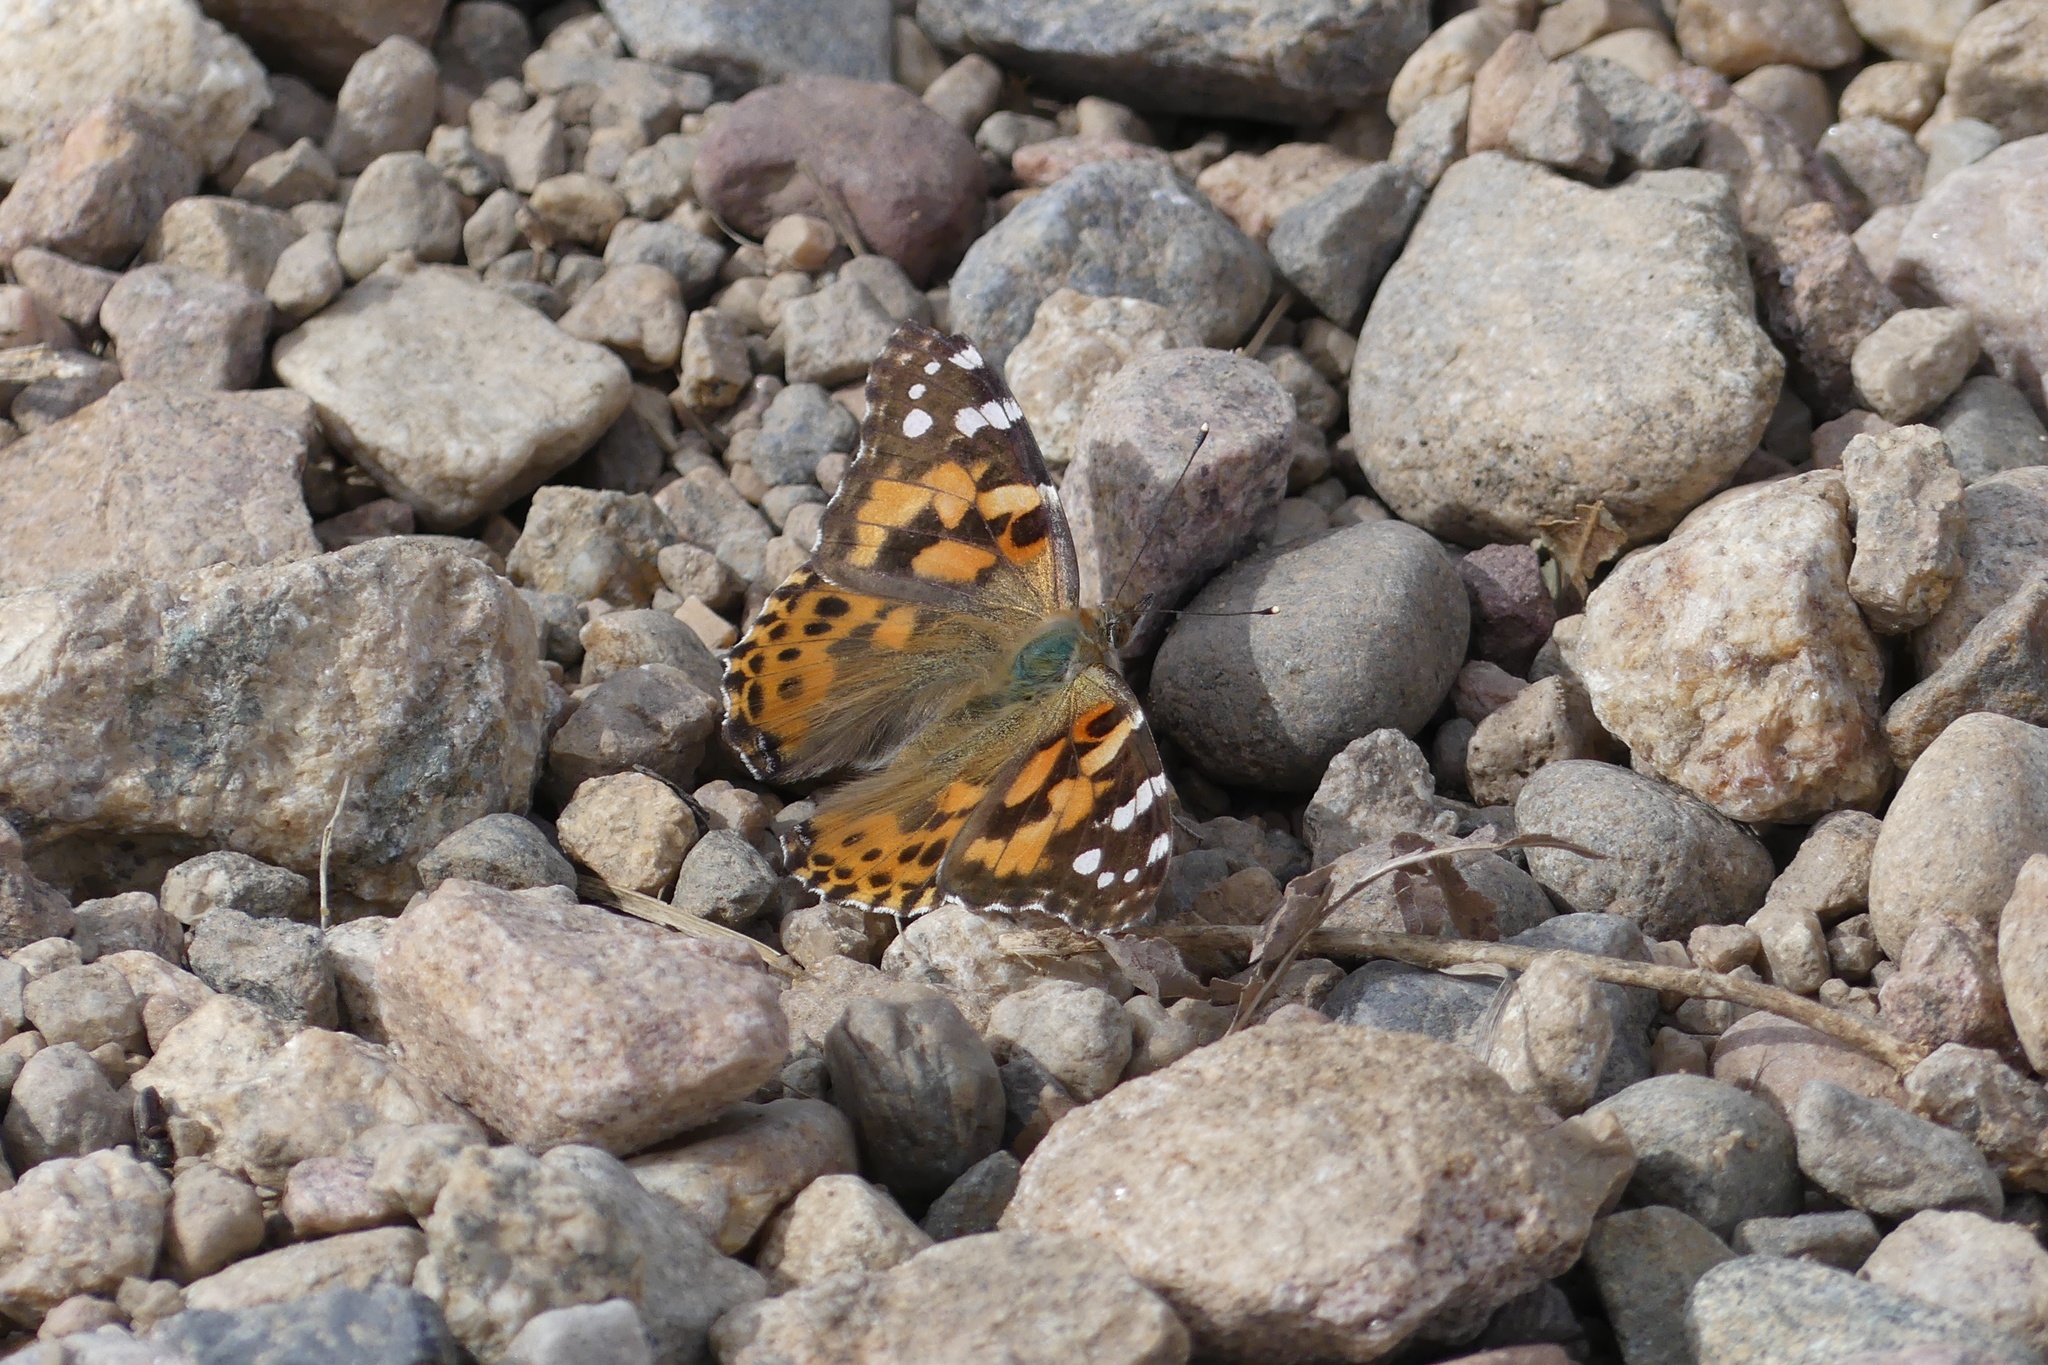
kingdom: Animalia
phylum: Arthropoda
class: Insecta
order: Lepidoptera
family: Nymphalidae
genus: Vanessa
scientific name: Vanessa cardui
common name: Painted lady
